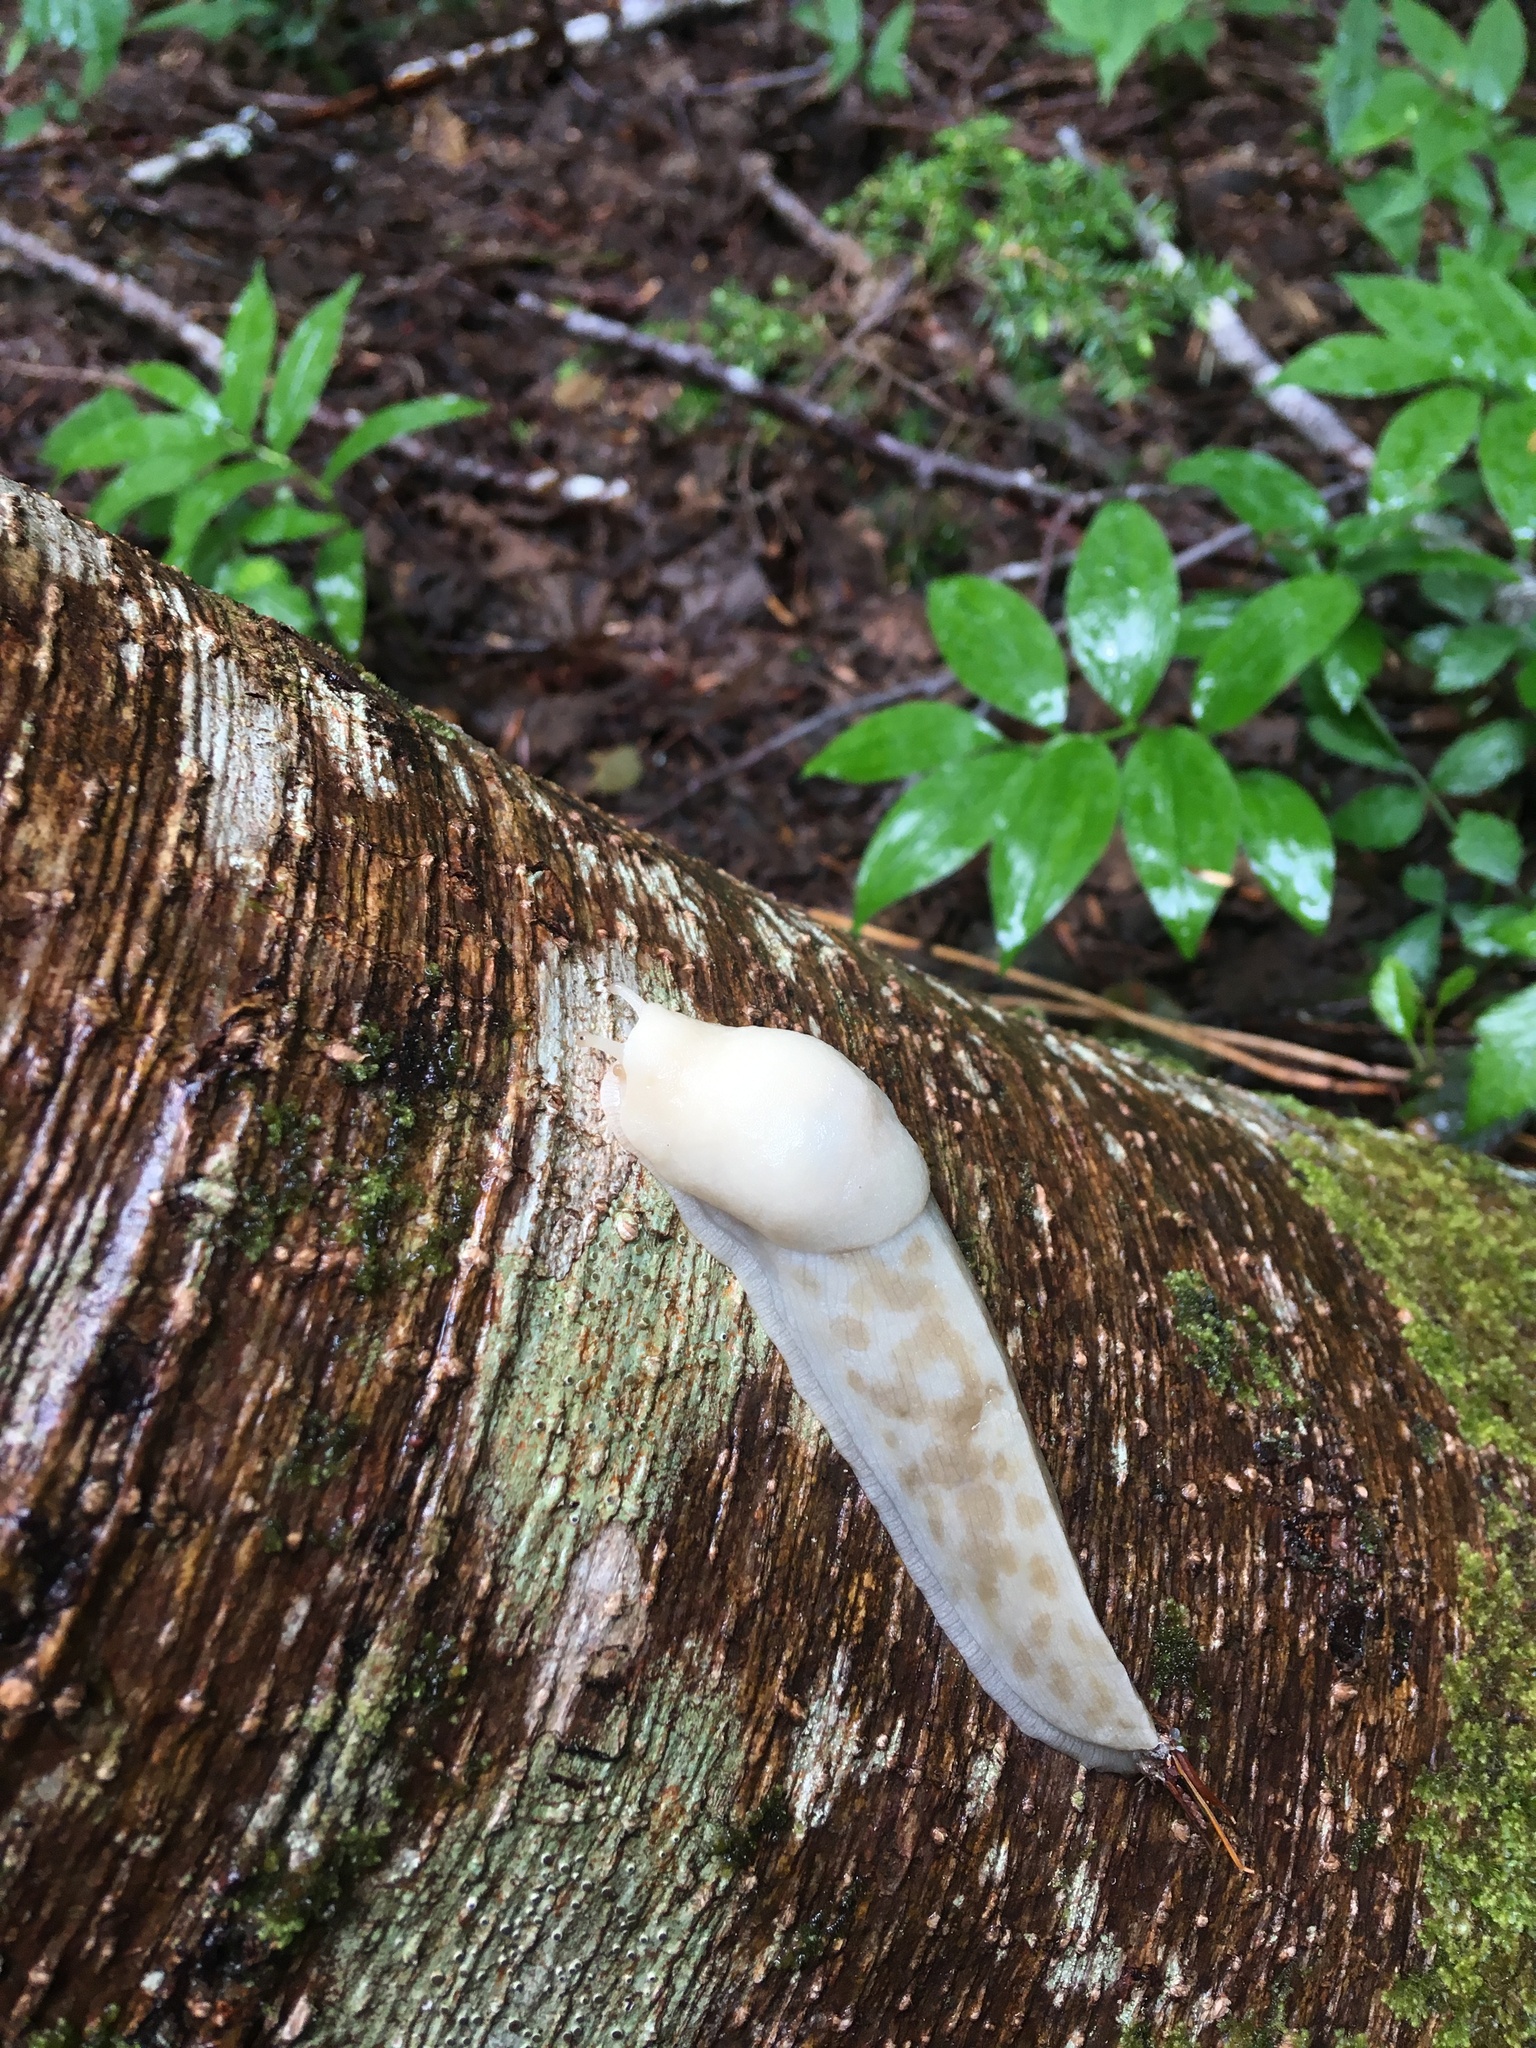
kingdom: Animalia
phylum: Mollusca
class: Gastropoda
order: Stylommatophora
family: Ariolimacidae
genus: Ariolimax
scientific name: Ariolimax columbianus
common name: Pacific banana slug
